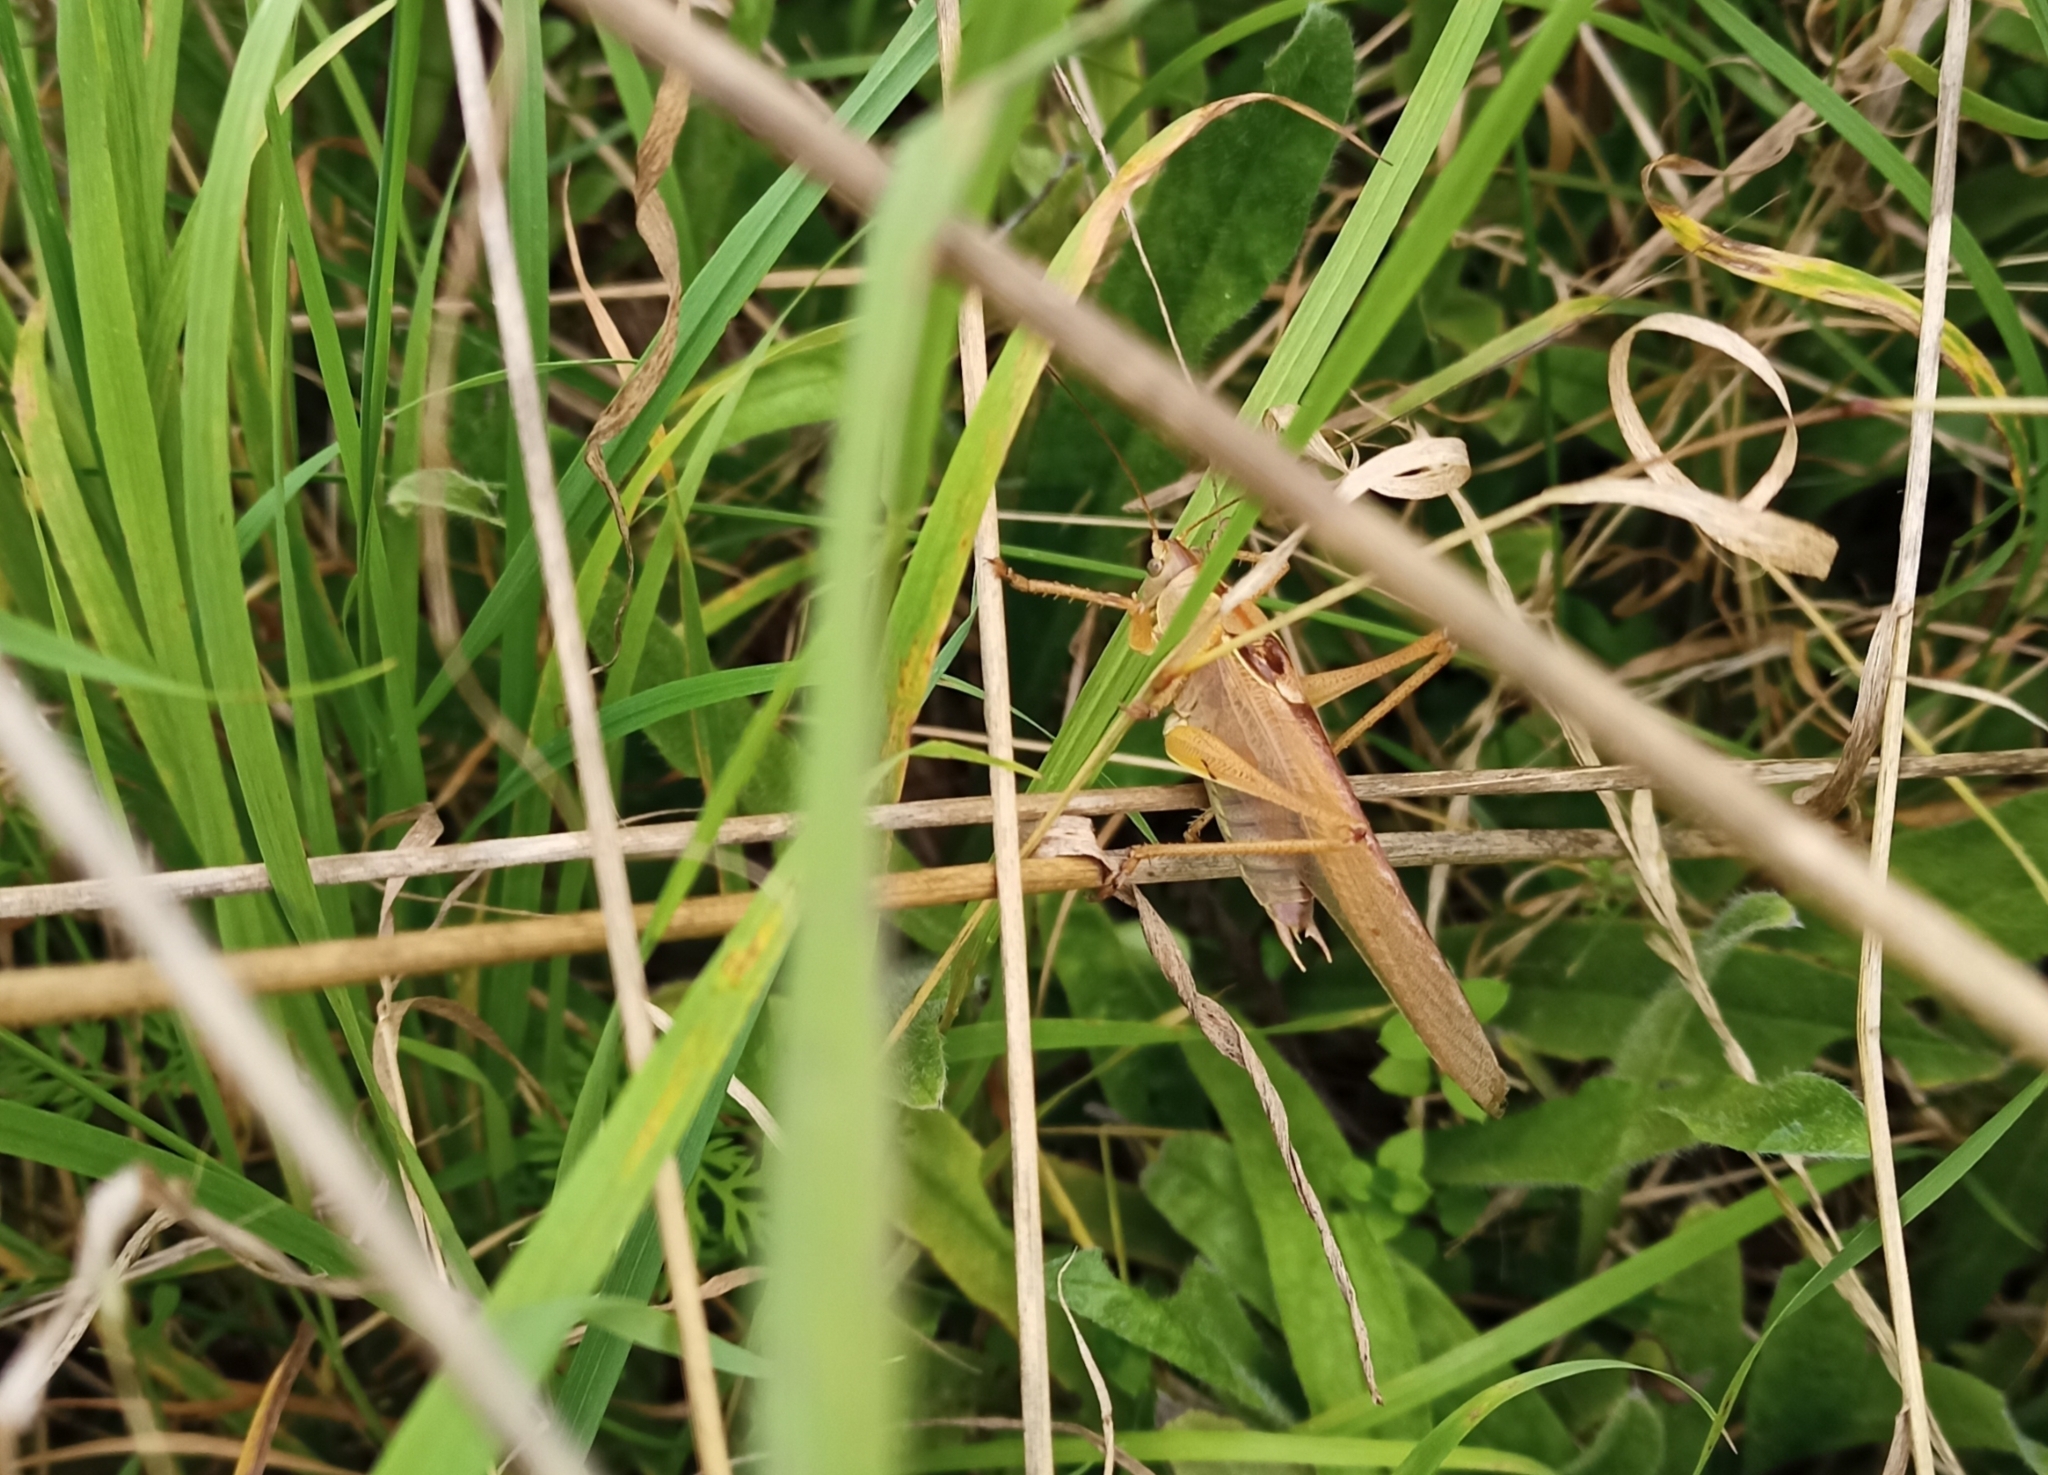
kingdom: Animalia
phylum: Arthropoda
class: Insecta
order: Orthoptera
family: Tettigoniidae
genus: Tettigonia
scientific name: Tettigonia viridissima
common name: Great green bush-cricket
